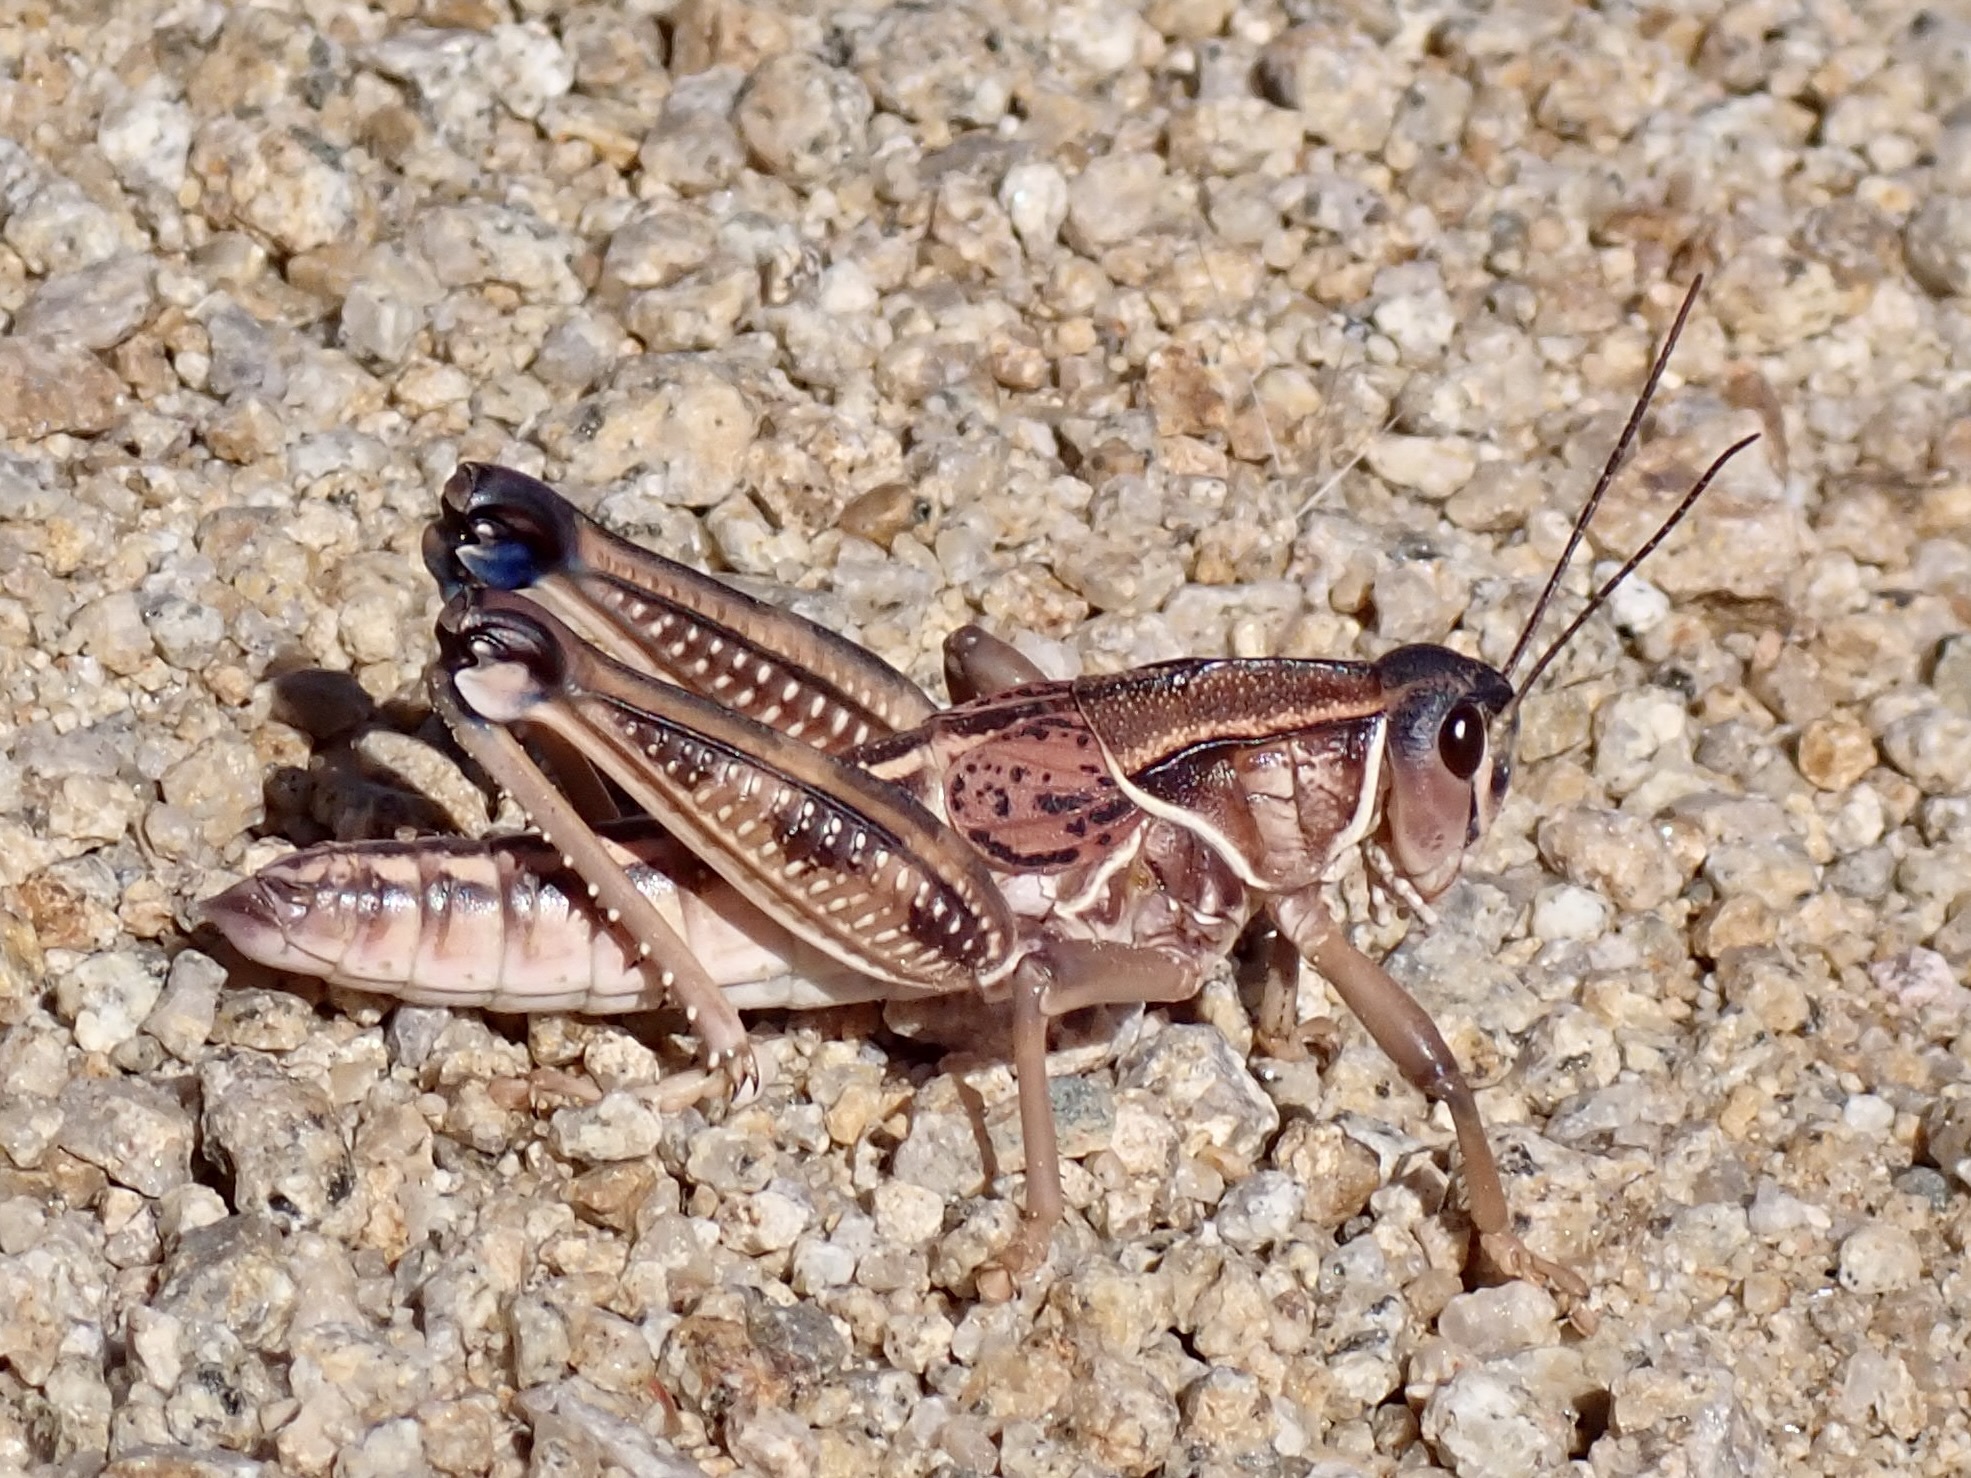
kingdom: Animalia
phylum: Arthropoda
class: Insecta
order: Orthoptera
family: Romaleidae
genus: Brachystola
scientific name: Brachystola magna
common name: Plains lubber grasshopper
